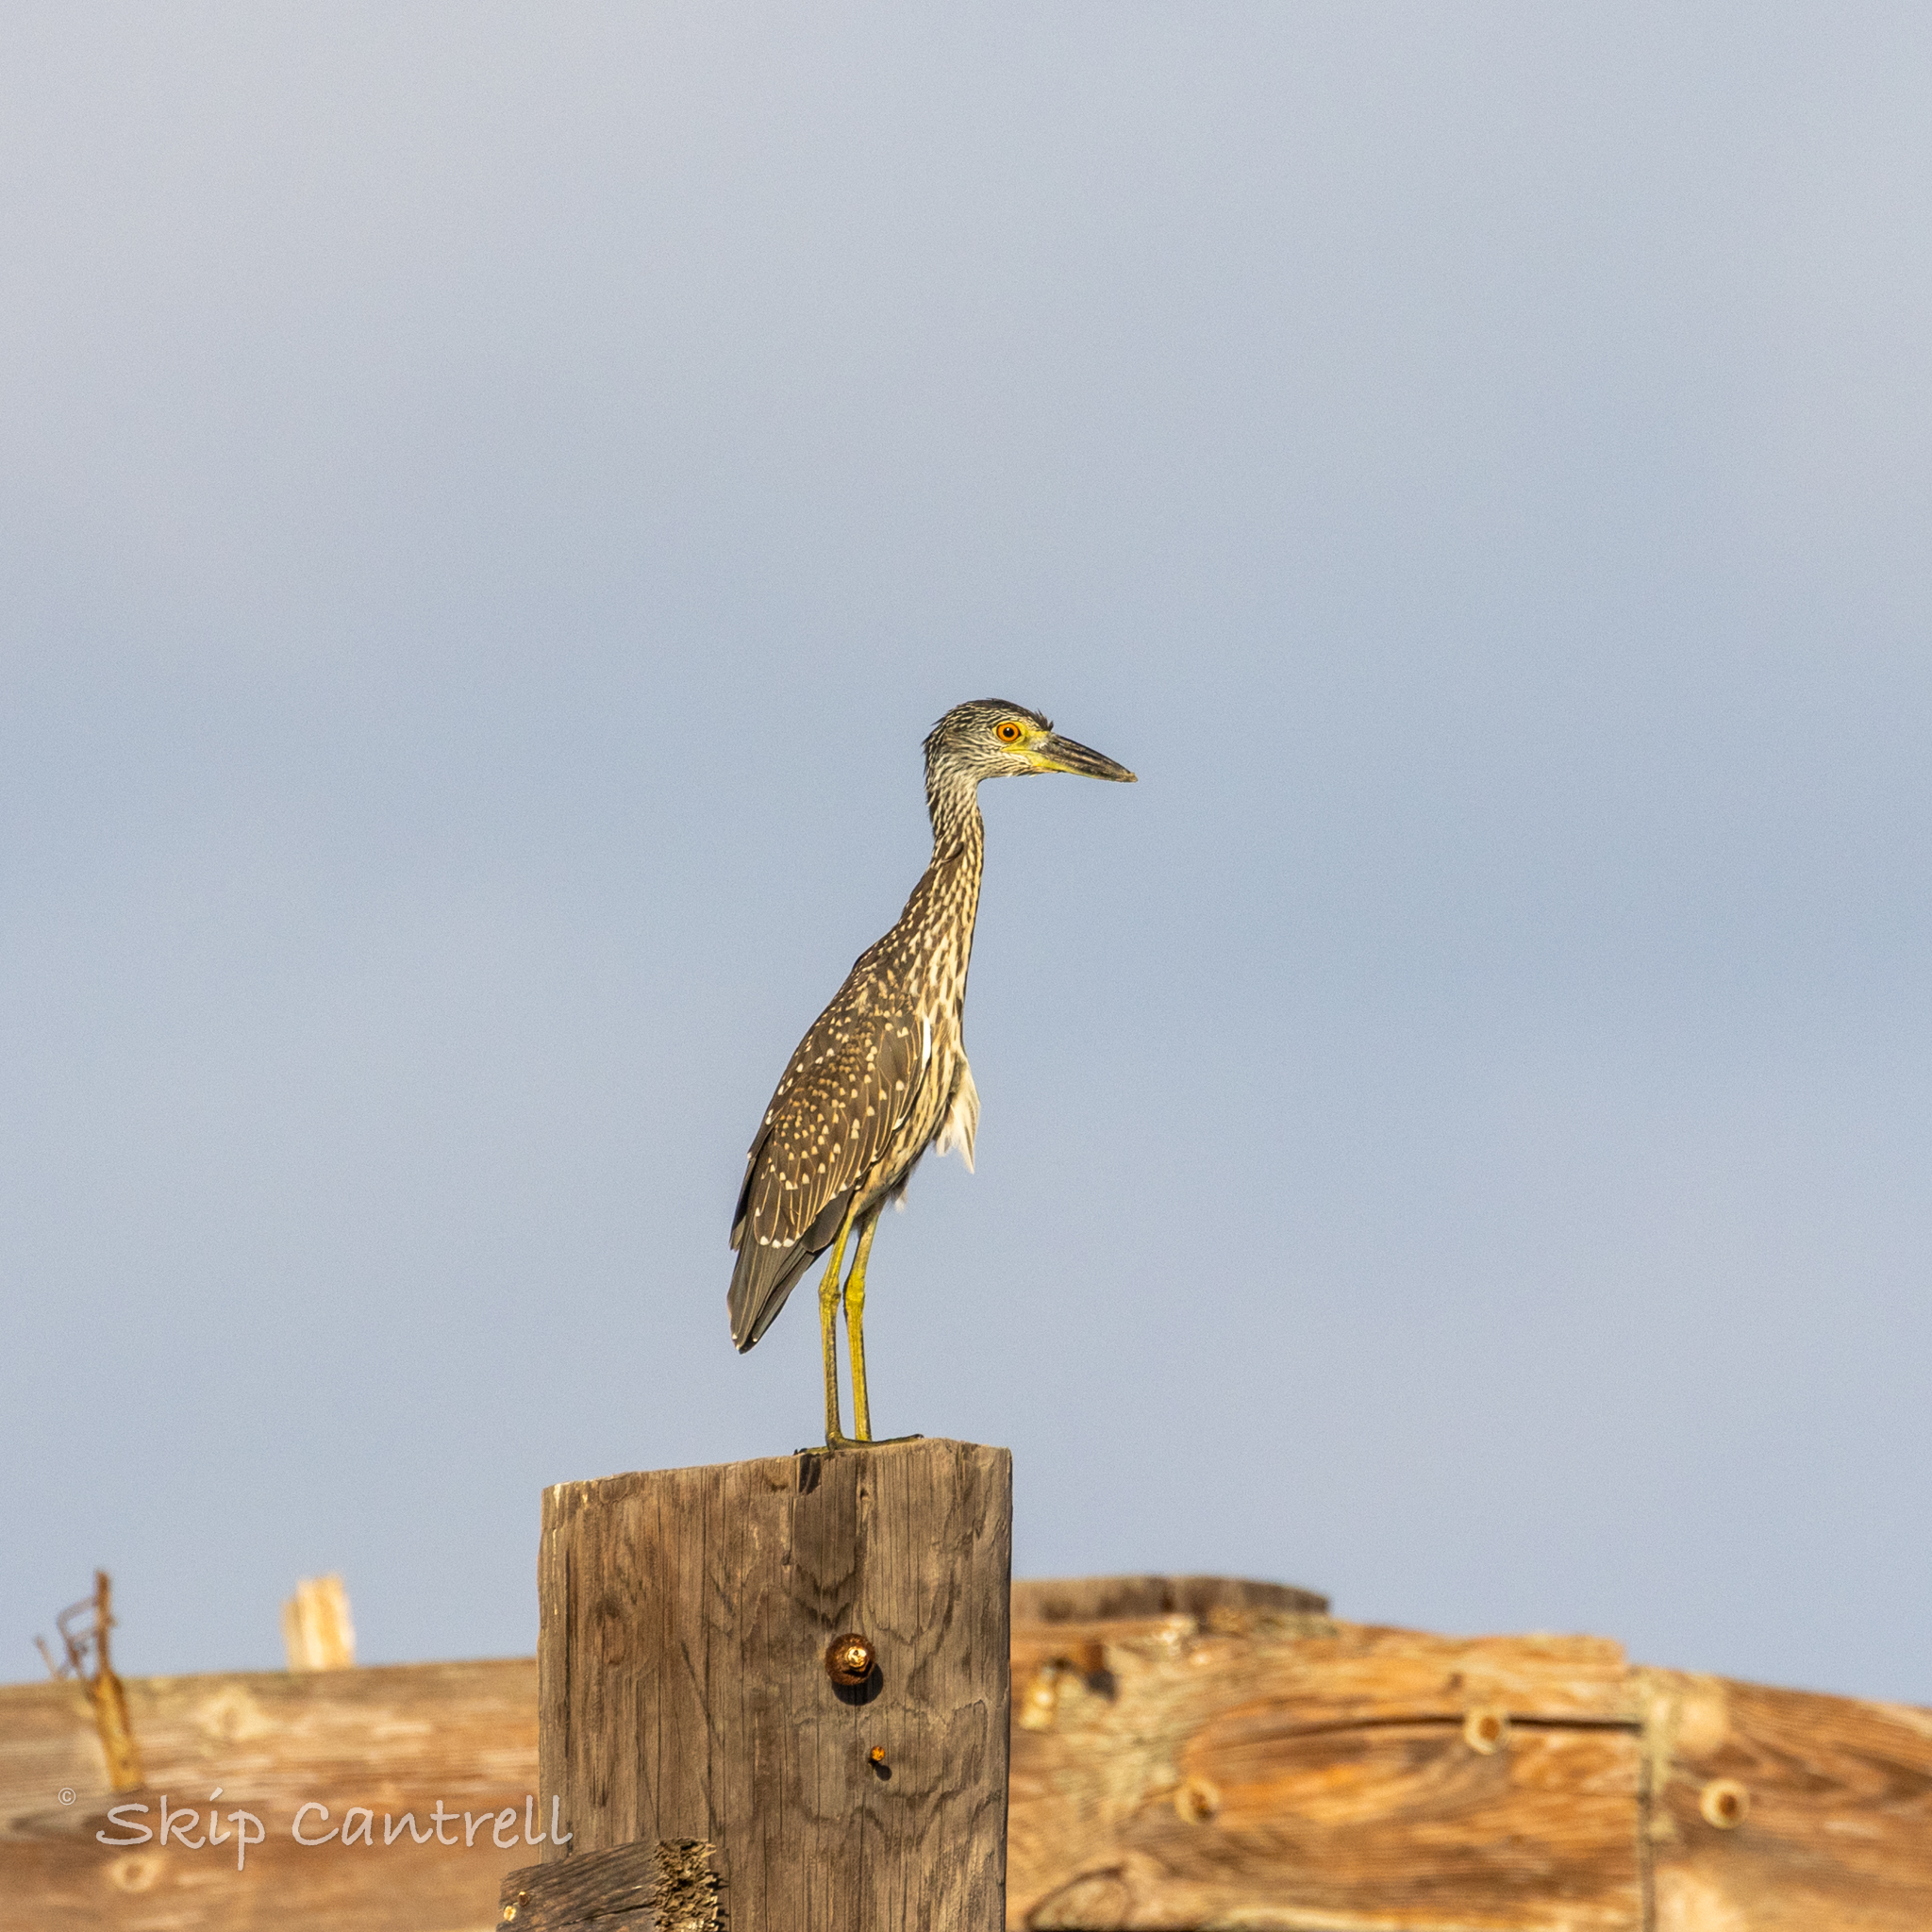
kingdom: Animalia
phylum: Chordata
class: Aves
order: Pelecaniformes
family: Ardeidae
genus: Nyctanassa
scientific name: Nyctanassa violacea
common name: Yellow-crowned night heron
